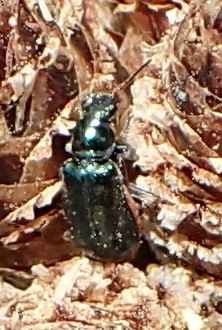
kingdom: Animalia
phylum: Arthropoda
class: Insecta
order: Coleoptera
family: Chrysomelidae
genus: Decaria
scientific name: Decaria
